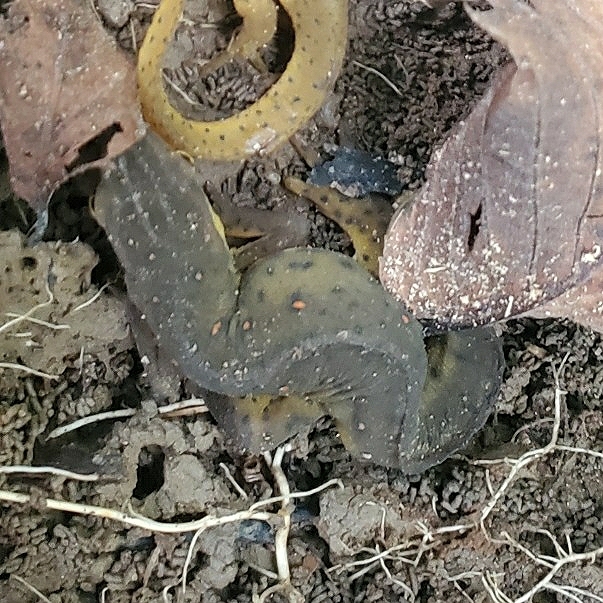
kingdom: Animalia
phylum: Chordata
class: Amphibia
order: Caudata
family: Salamandridae
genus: Notophthalmus
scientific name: Notophthalmus viridescens
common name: Eastern newt
